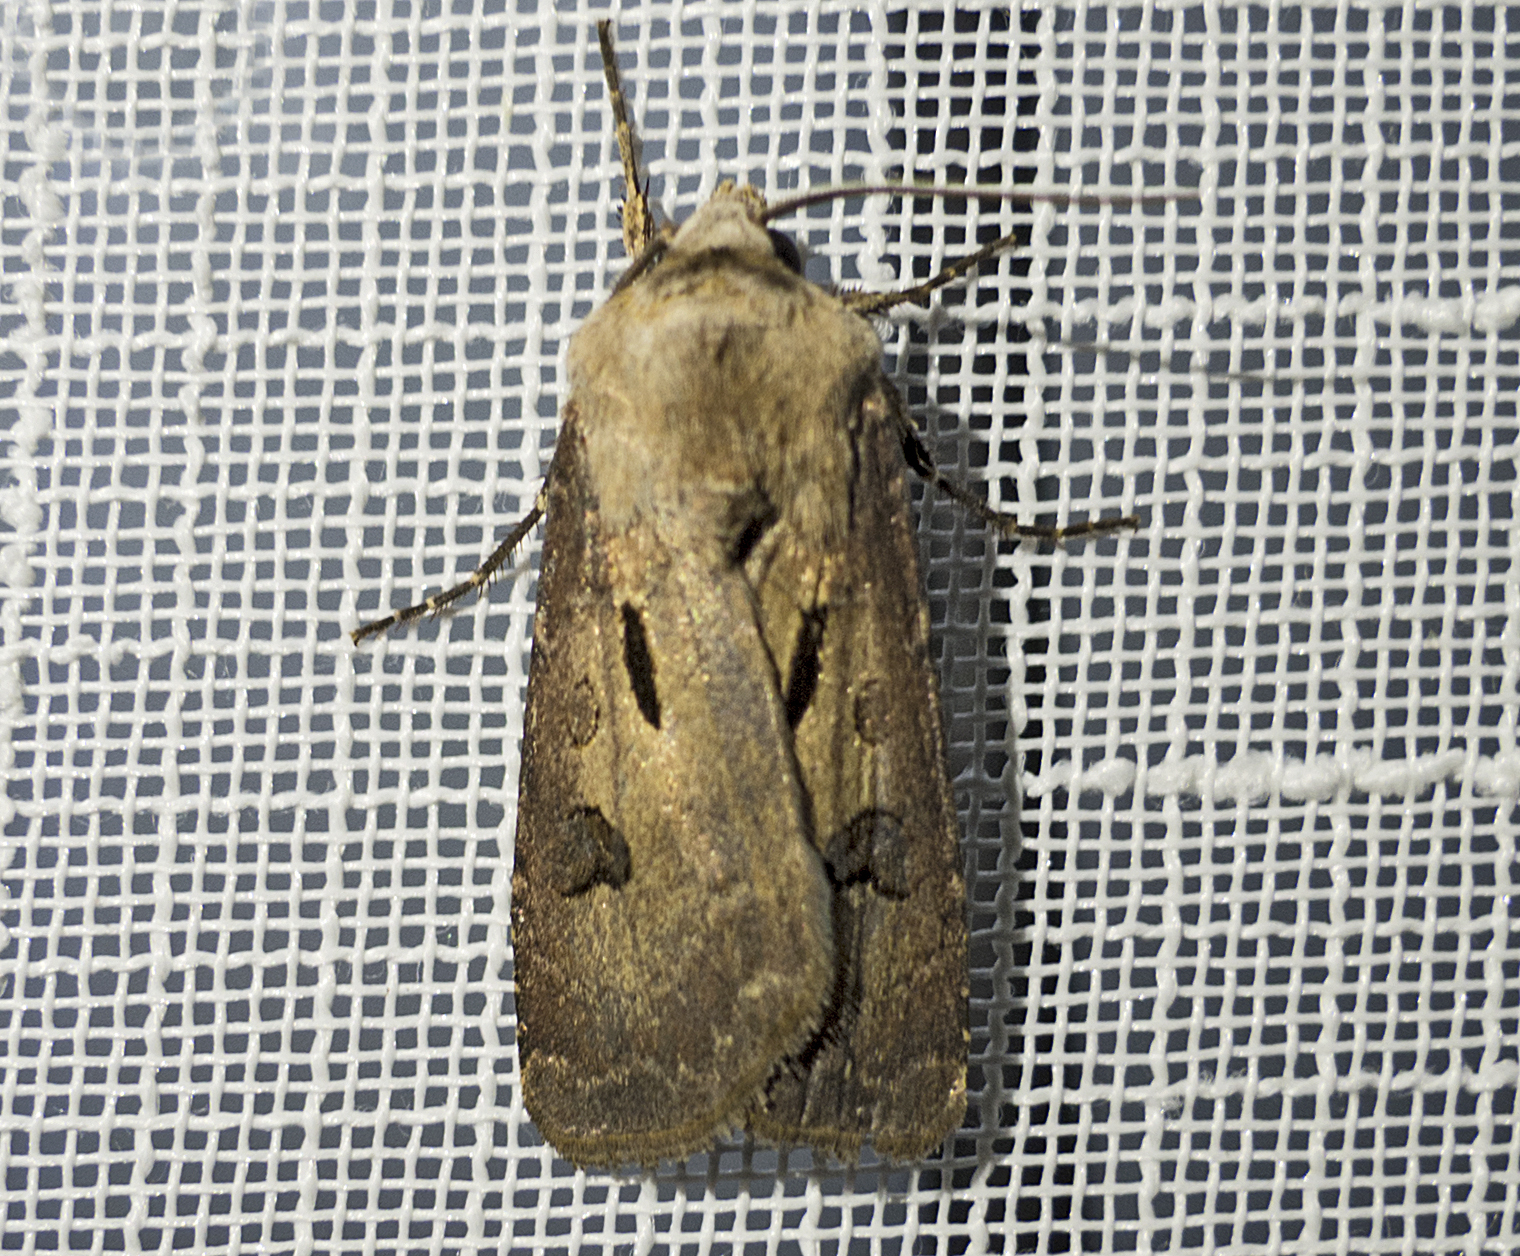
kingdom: Animalia
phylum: Arthropoda
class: Insecta
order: Lepidoptera
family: Noctuidae
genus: Agrotis
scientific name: Agrotis exclamationis
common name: Heart and dart
